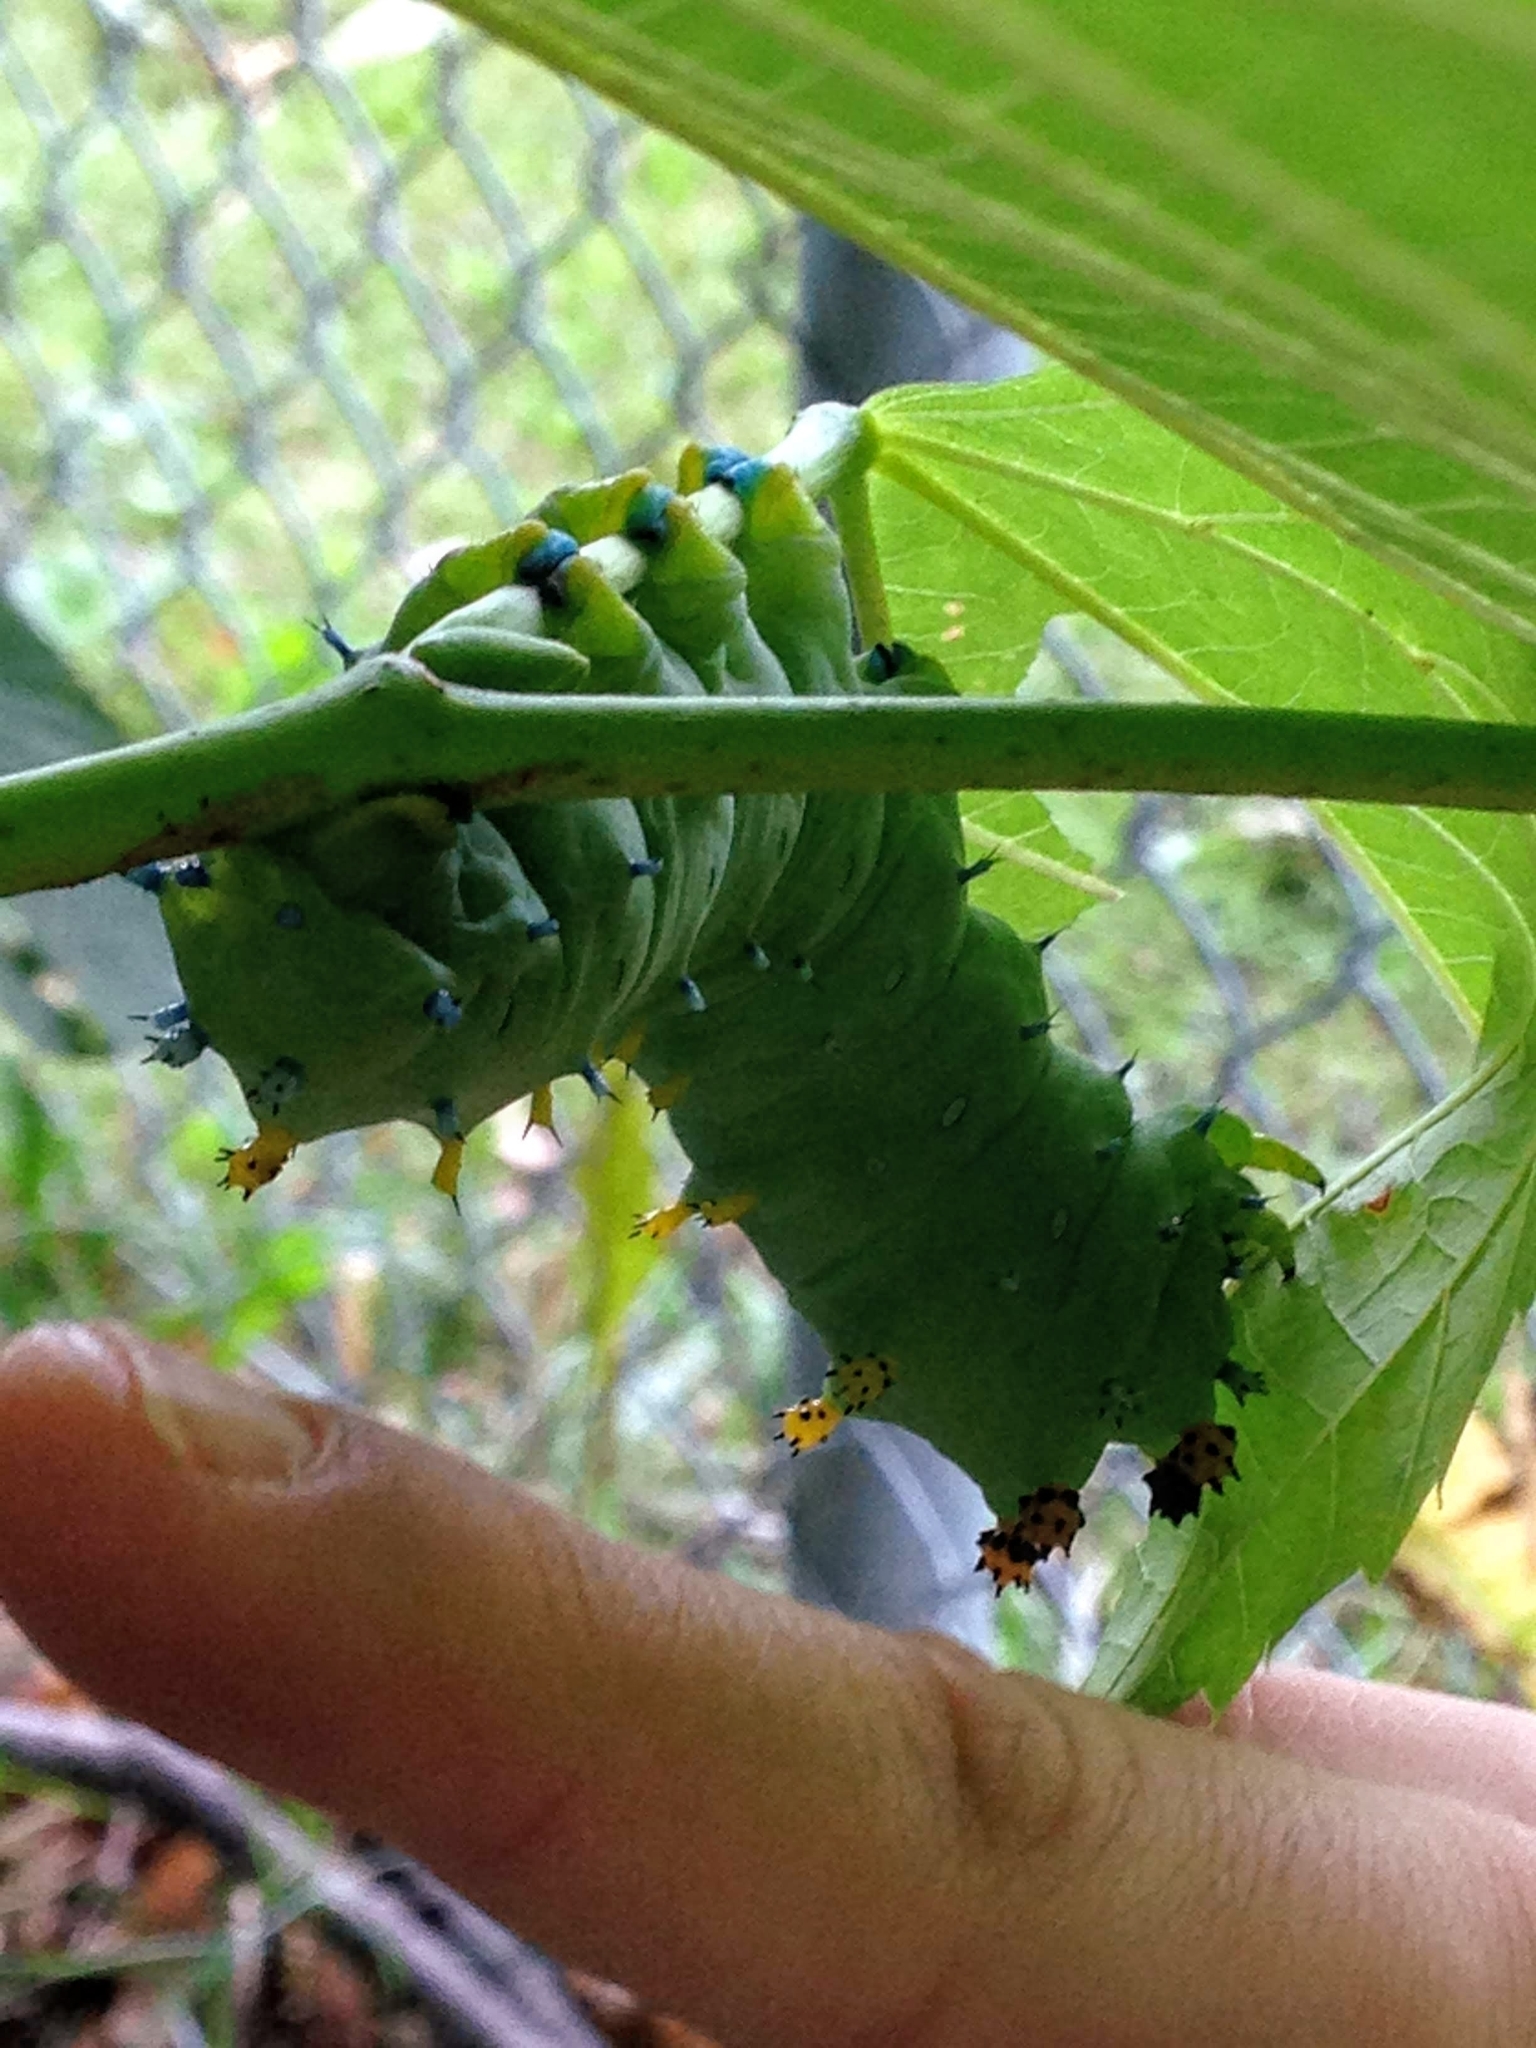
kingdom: Animalia
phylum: Arthropoda
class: Insecta
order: Lepidoptera
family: Saturniidae
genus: Hyalophora
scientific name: Hyalophora cecropia
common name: Cecropia silkmoth
